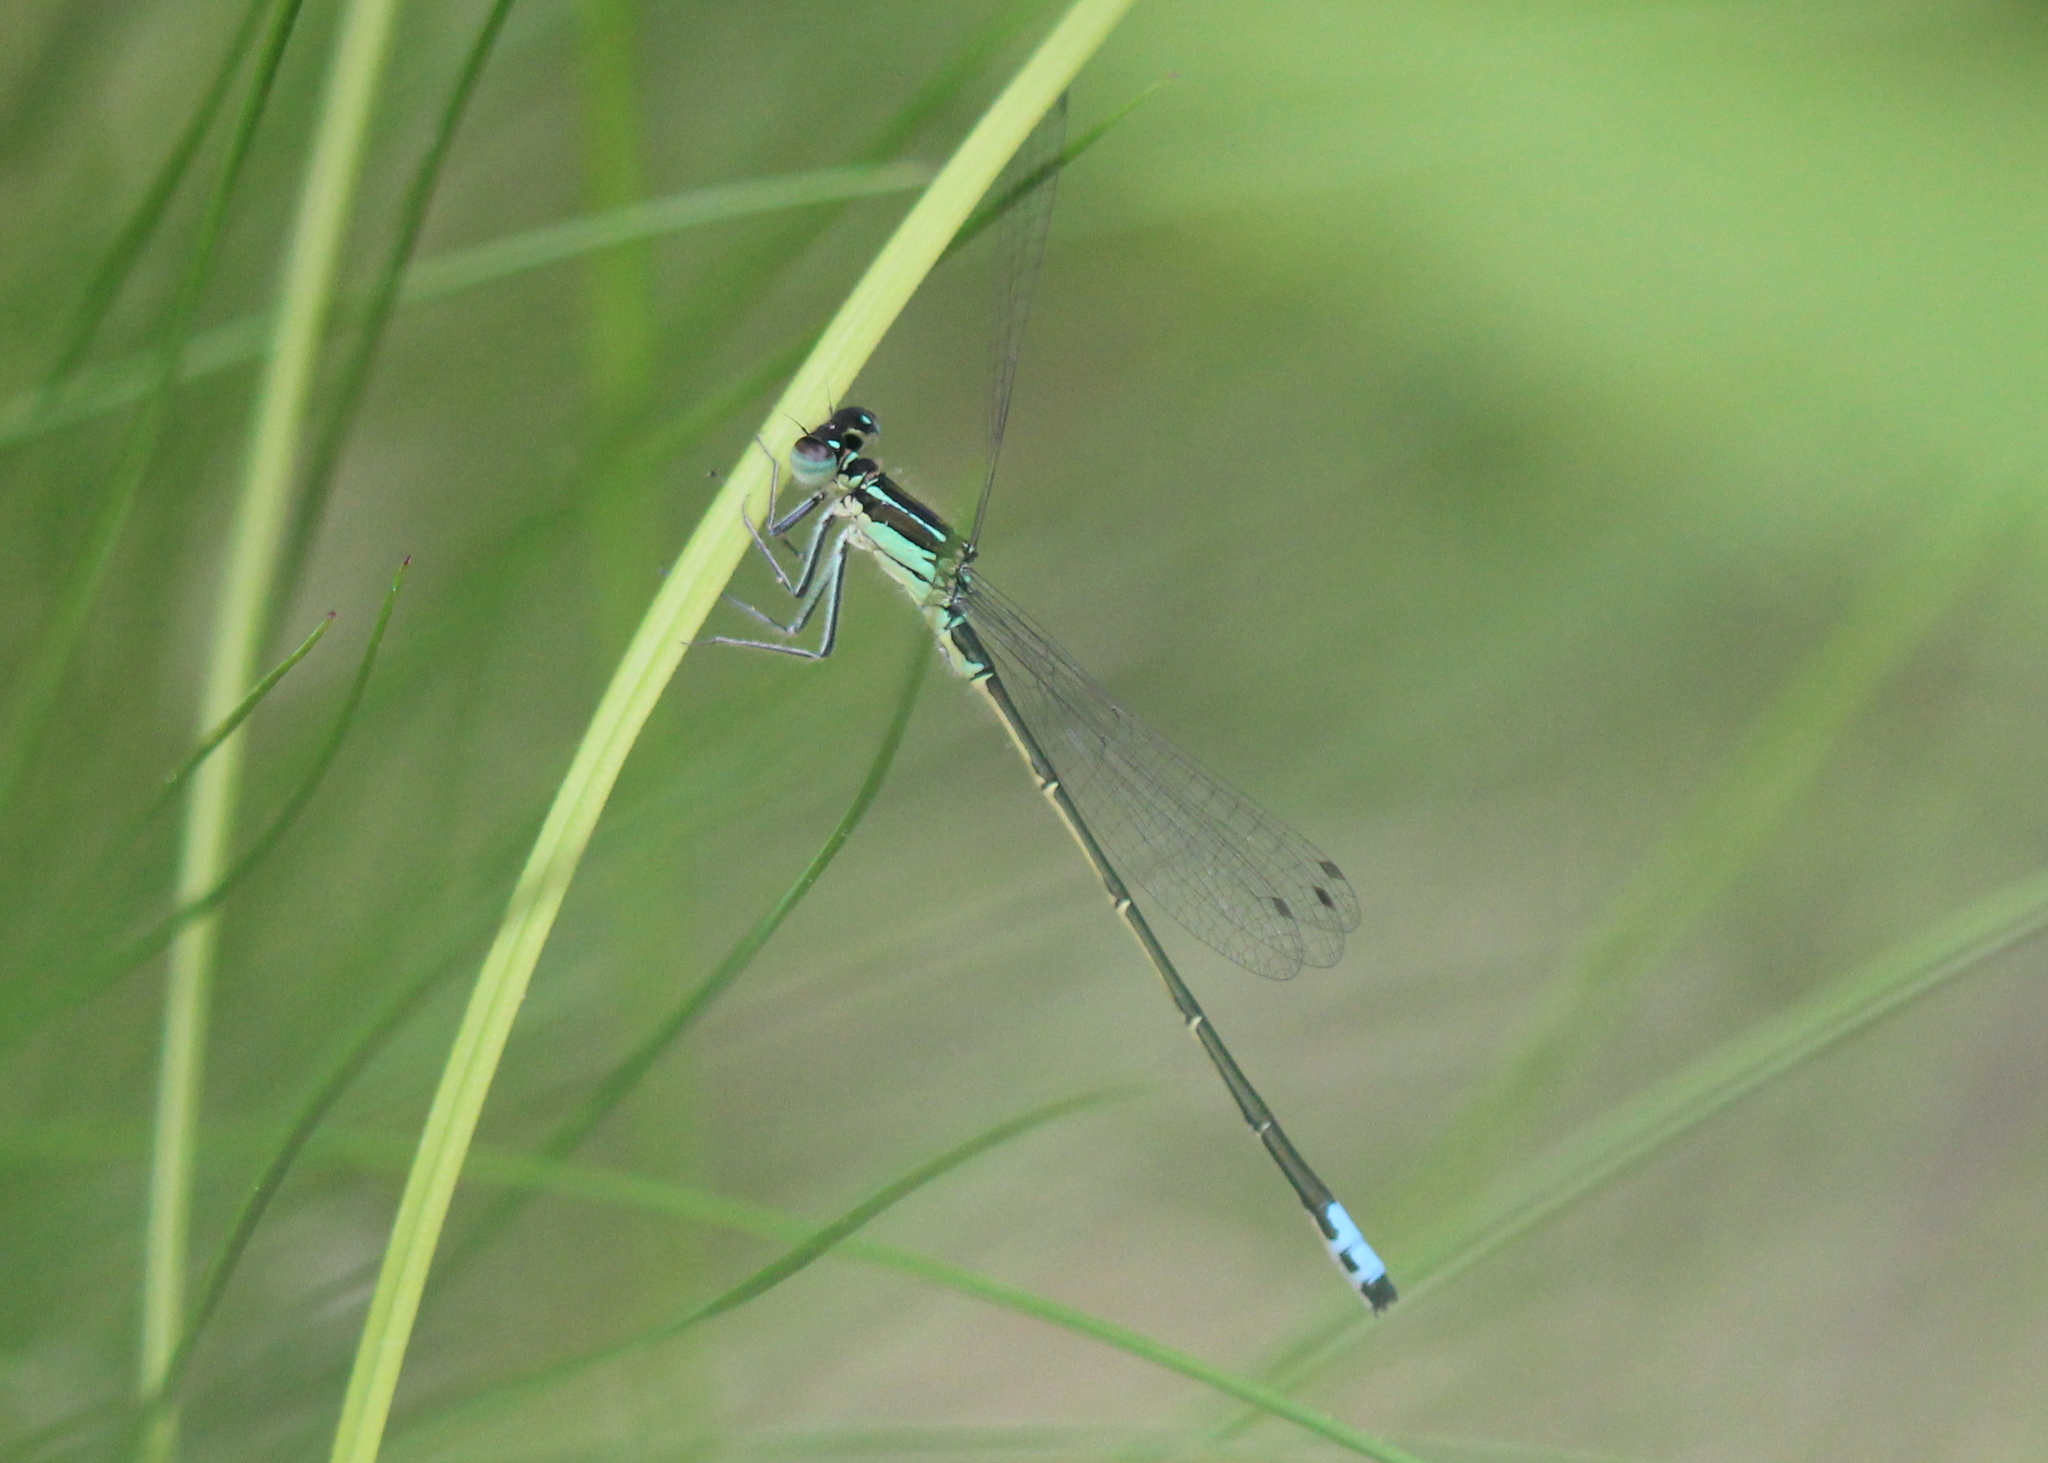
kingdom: Animalia
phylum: Arthropoda
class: Insecta
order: Odonata
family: Coenagrionidae
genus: Ischnura
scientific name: Ischnura verticalis
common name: Eastern forktail
